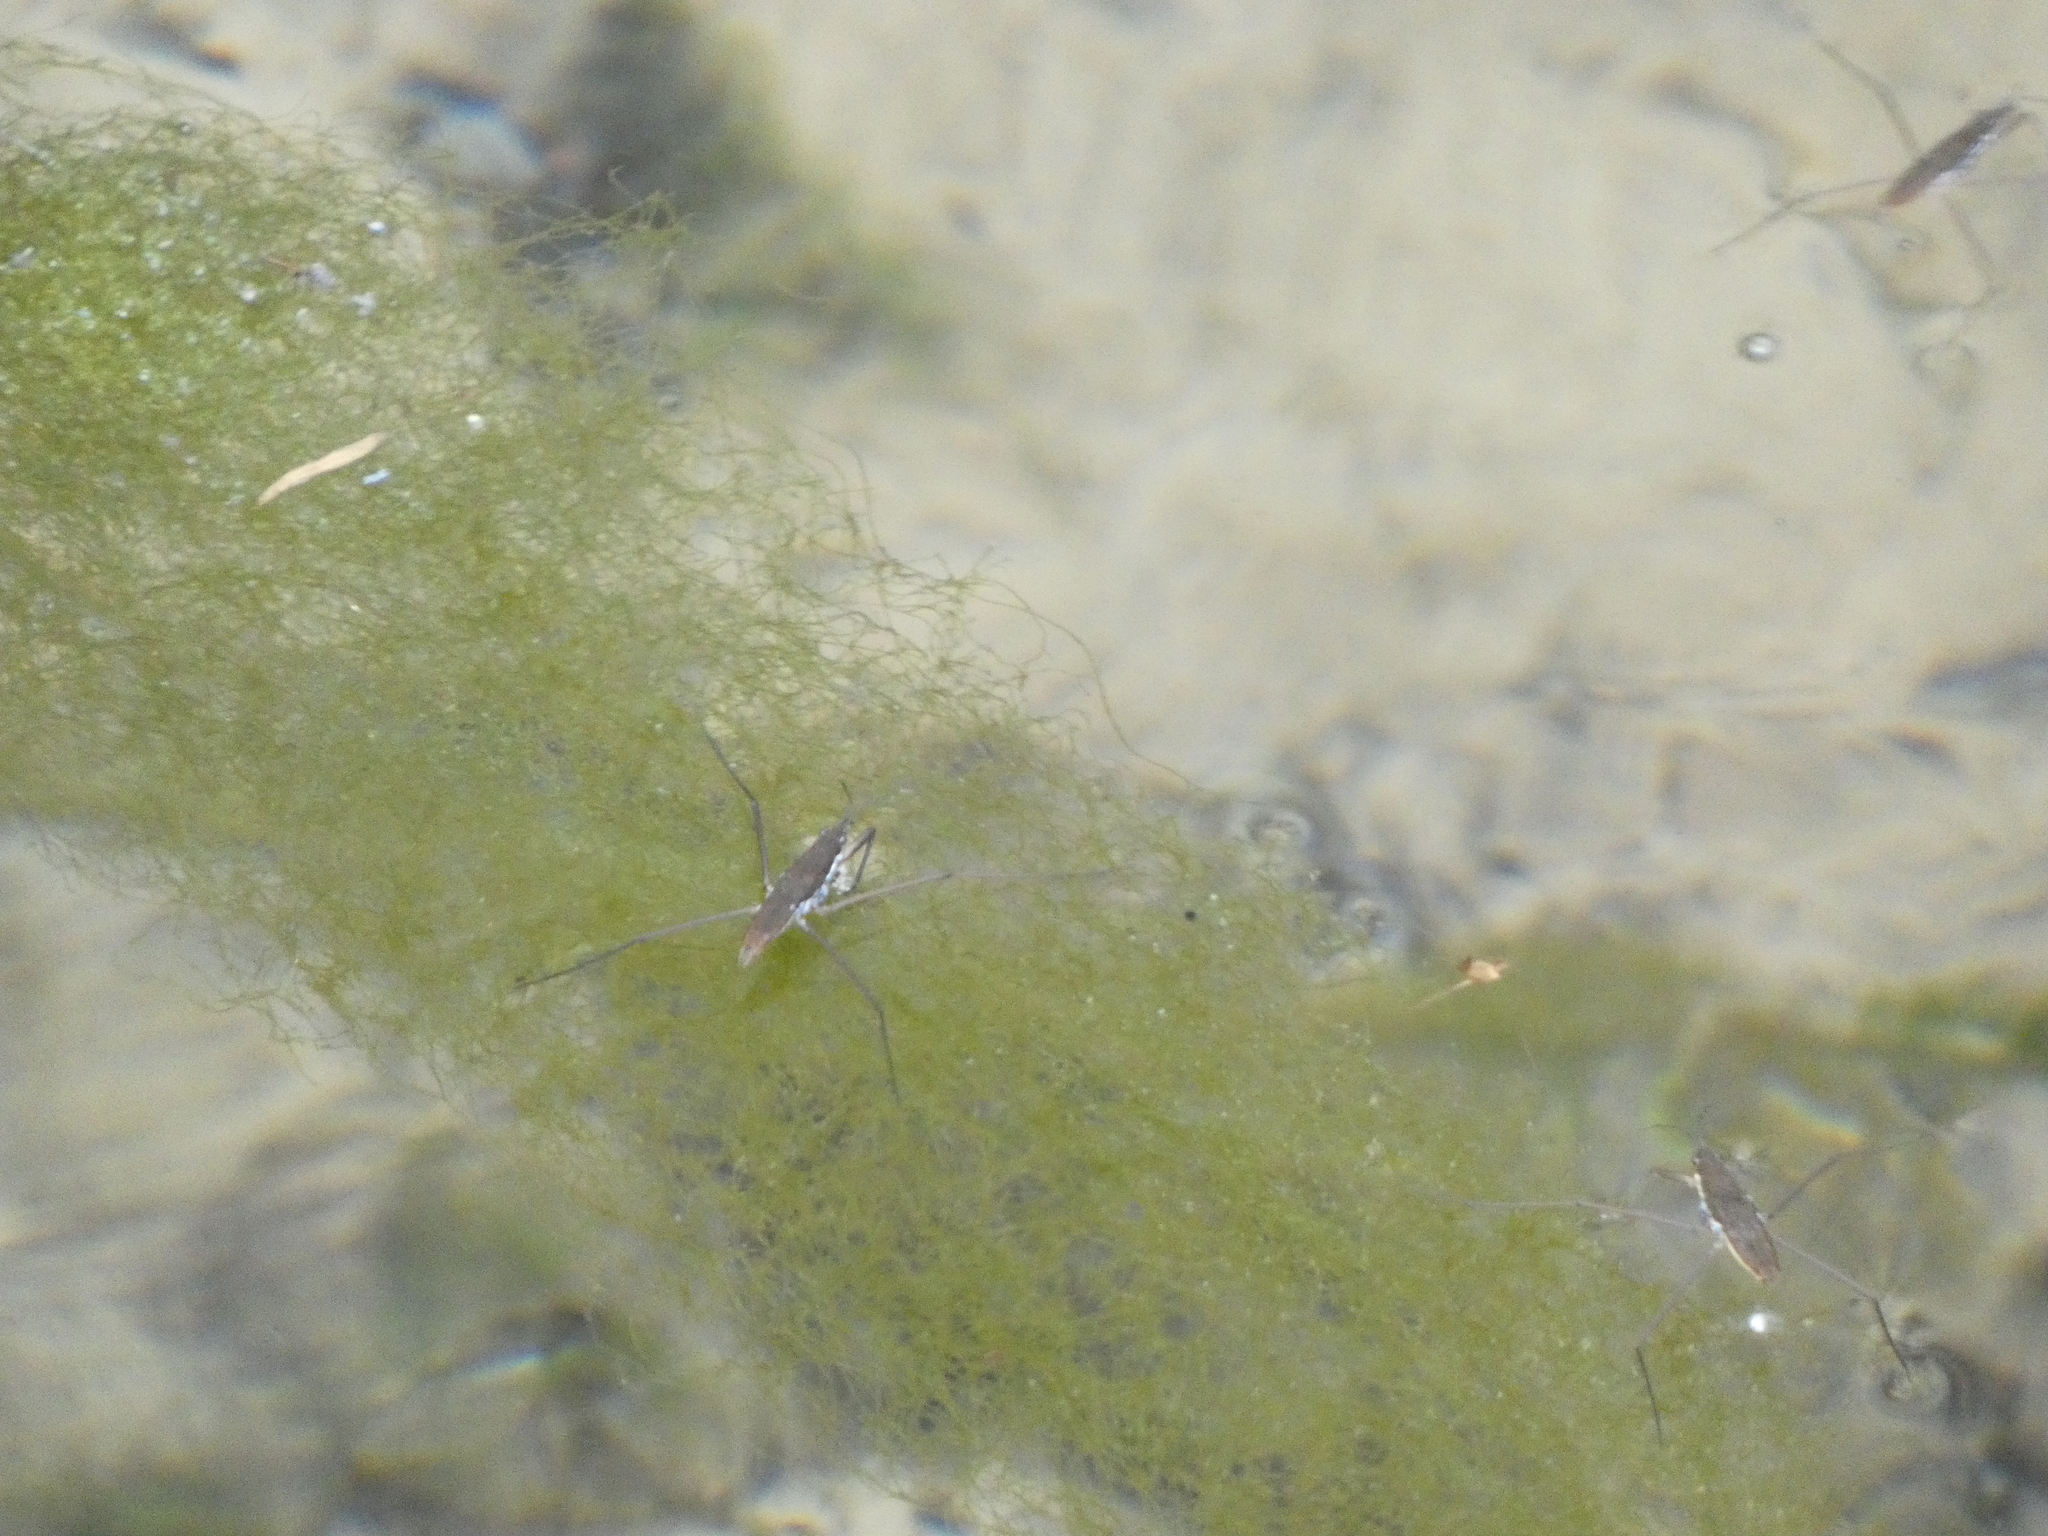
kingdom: Animalia
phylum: Arthropoda
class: Insecta
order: Hemiptera
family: Gerridae
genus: Aquarius
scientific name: Aquarius remigis
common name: Common water strider
